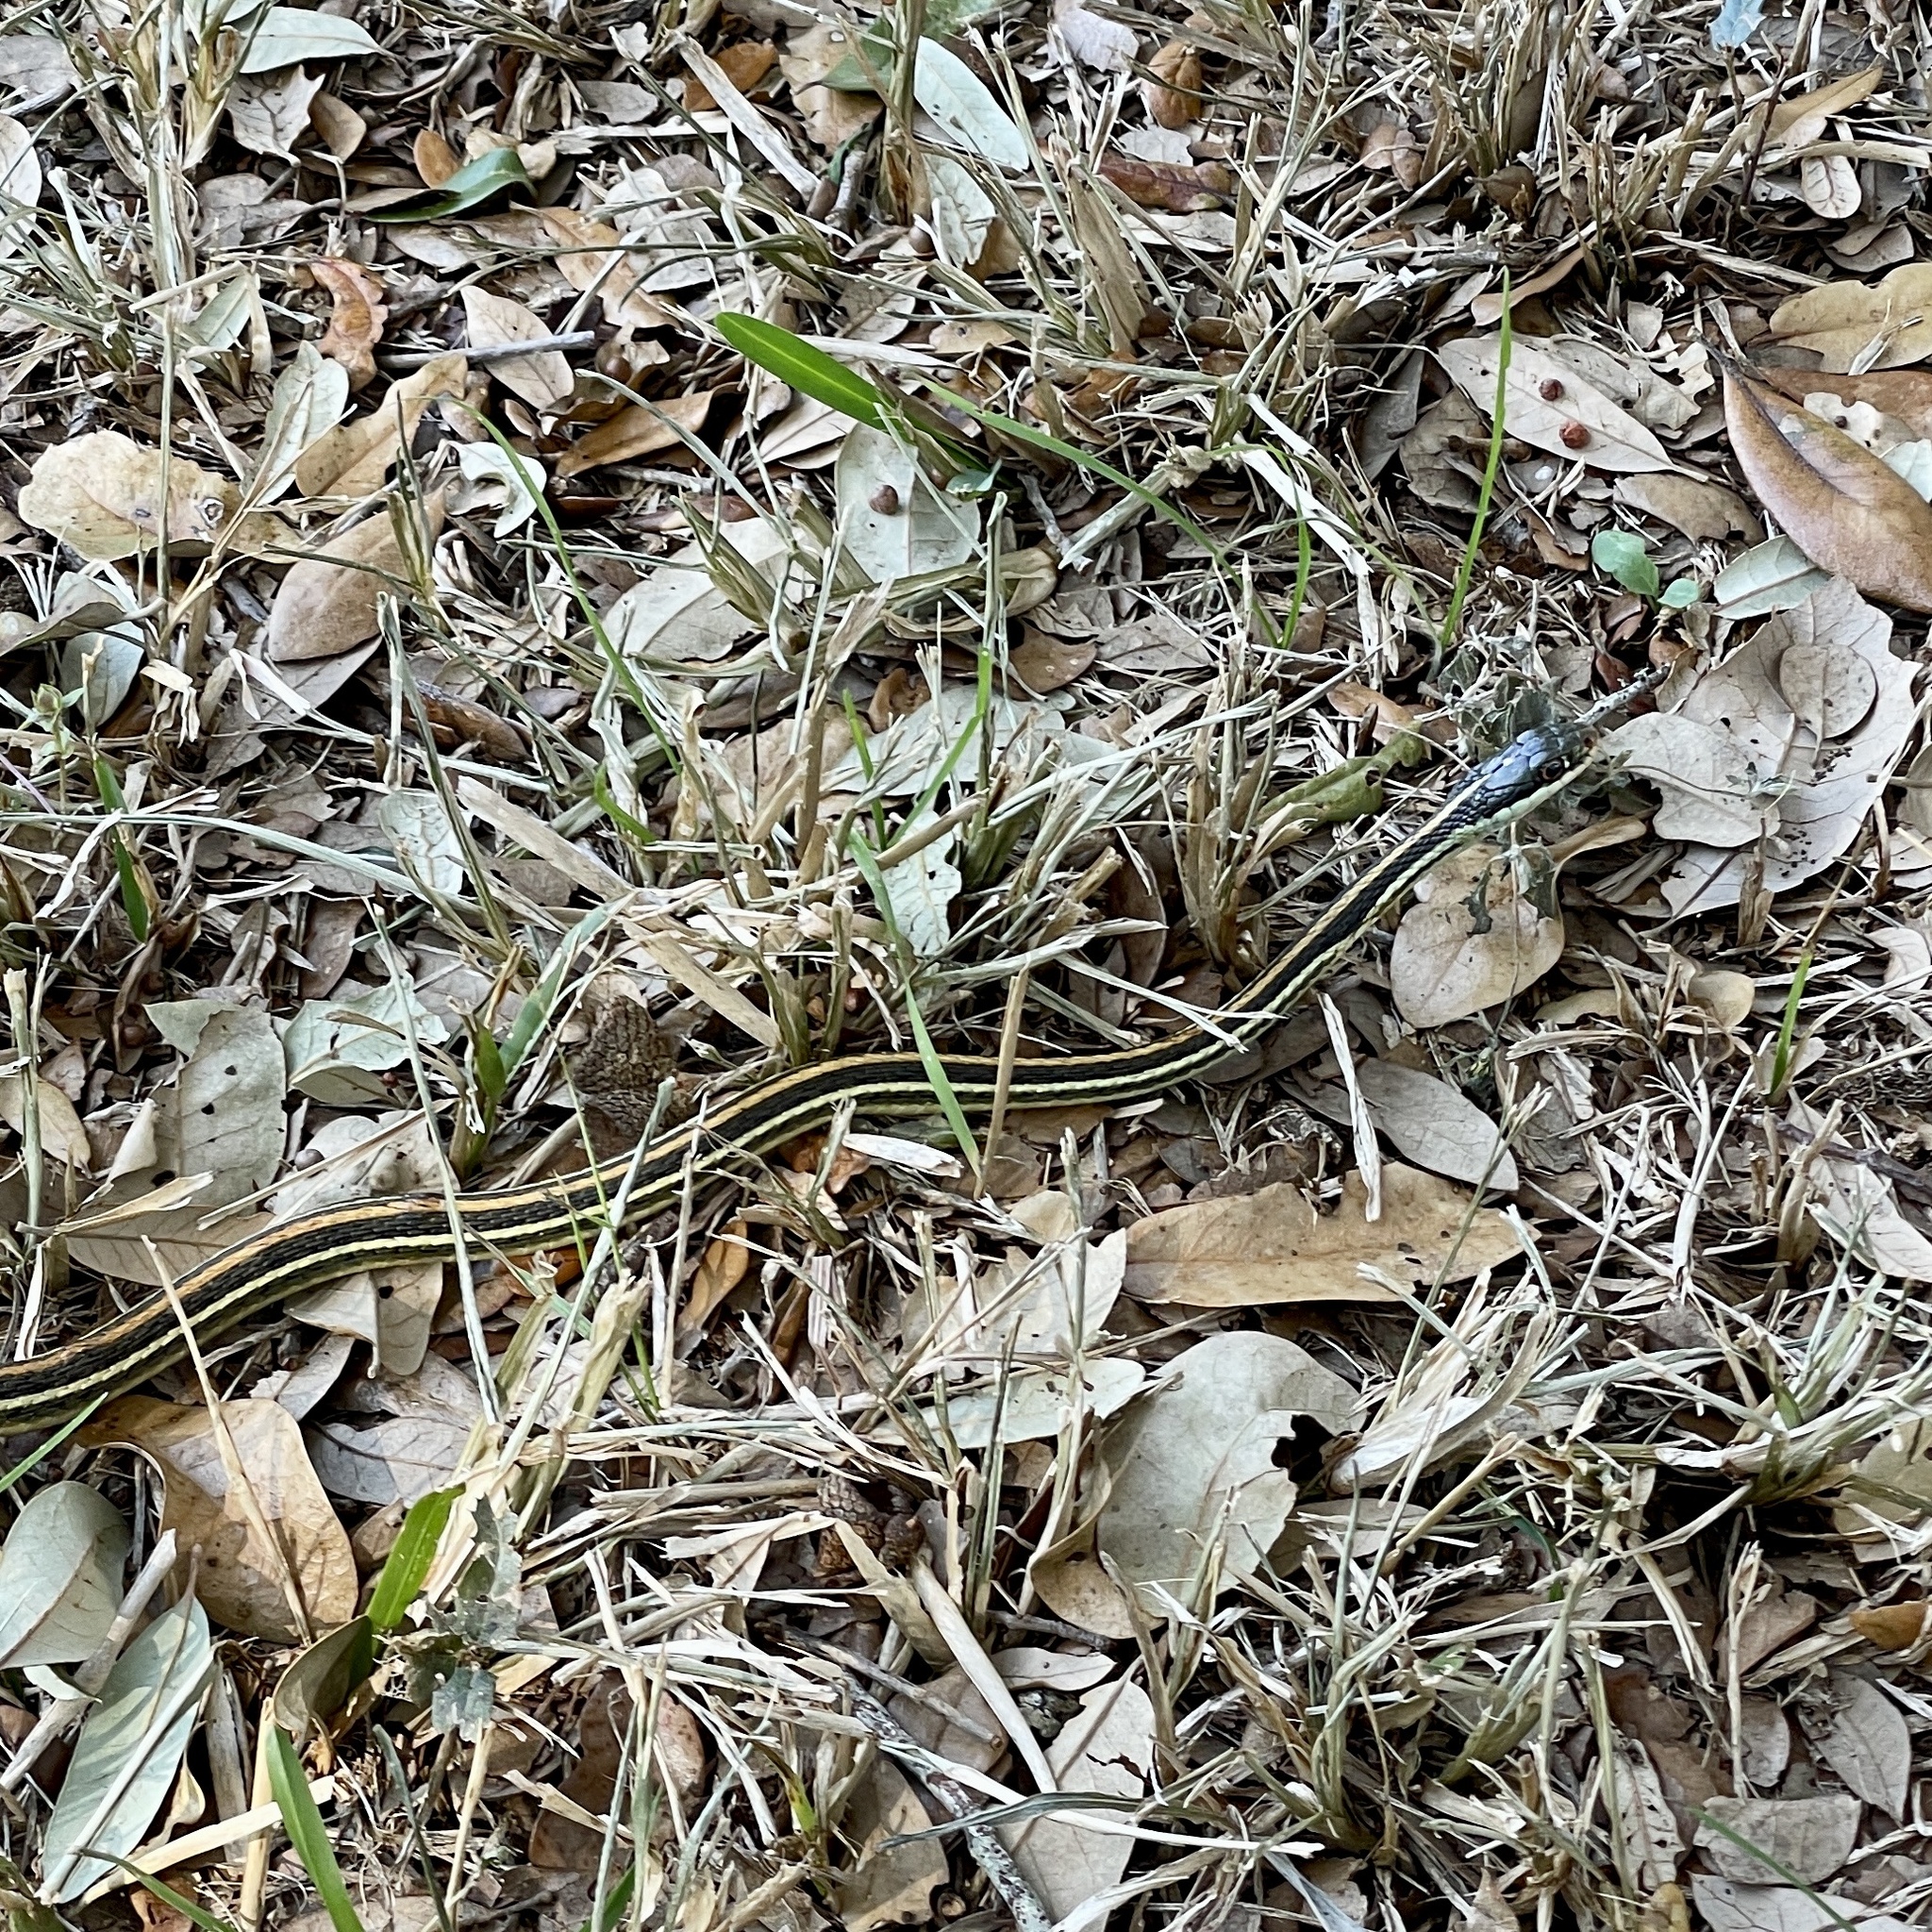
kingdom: Animalia
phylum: Chordata
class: Squamata
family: Colubridae
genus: Thamnophis
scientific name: Thamnophis proximus
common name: Western ribbon snake
